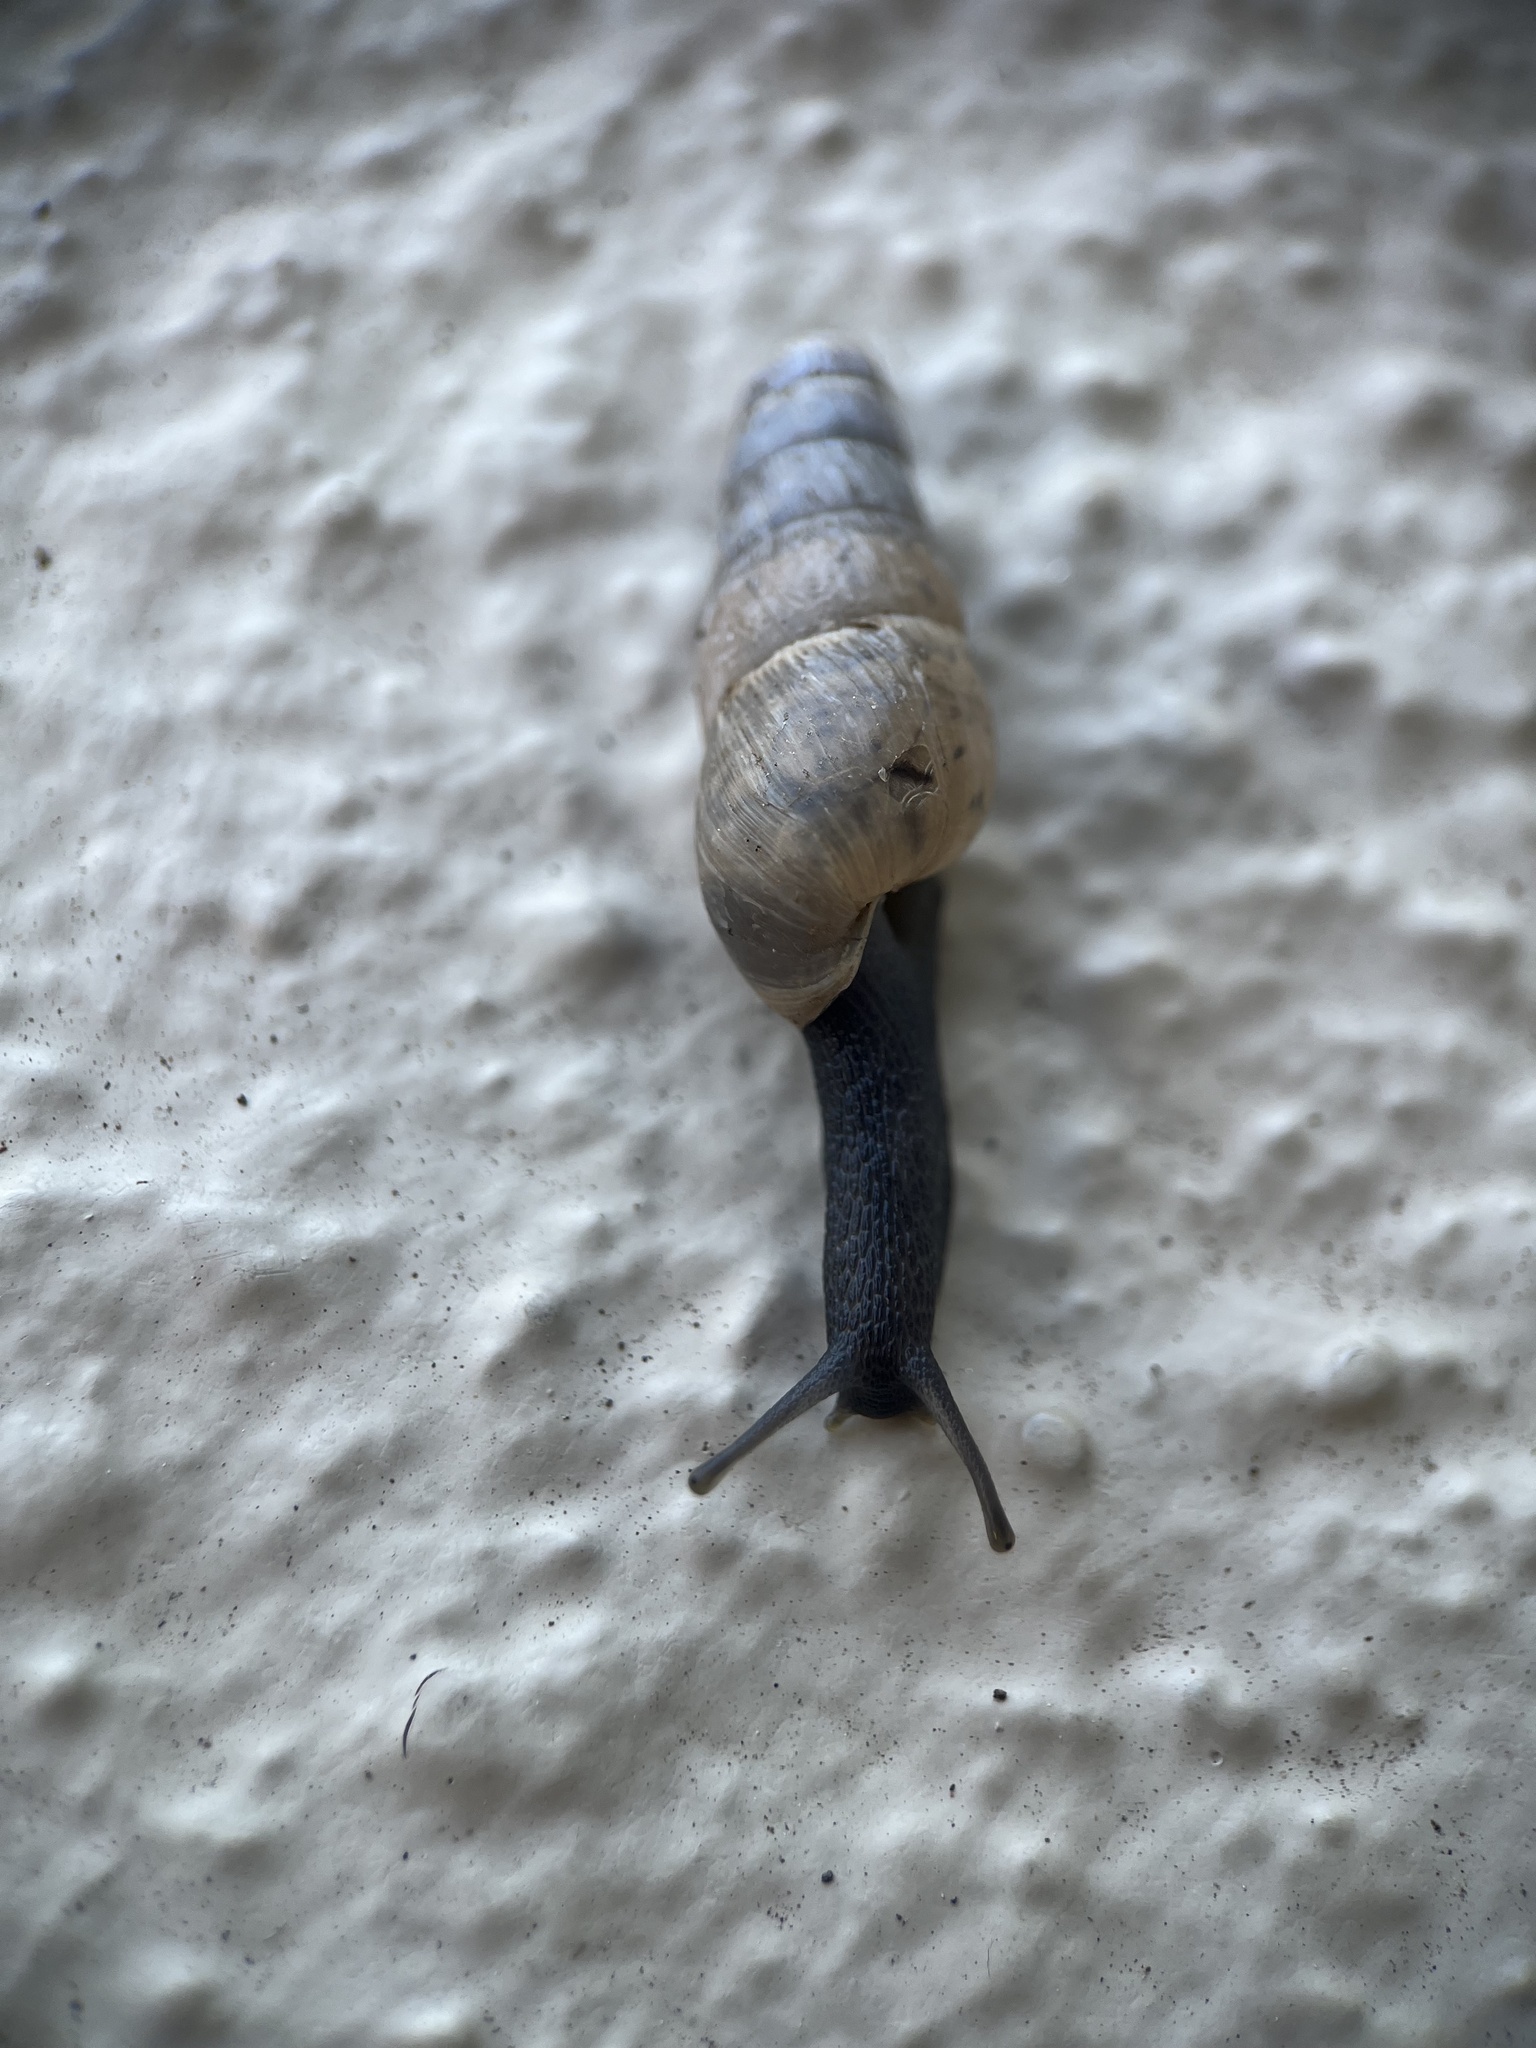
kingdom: Animalia
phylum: Mollusca
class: Gastropoda
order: Stylommatophora
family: Achatinidae
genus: Rumina
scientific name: Rumina decollata
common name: Decollate snail
